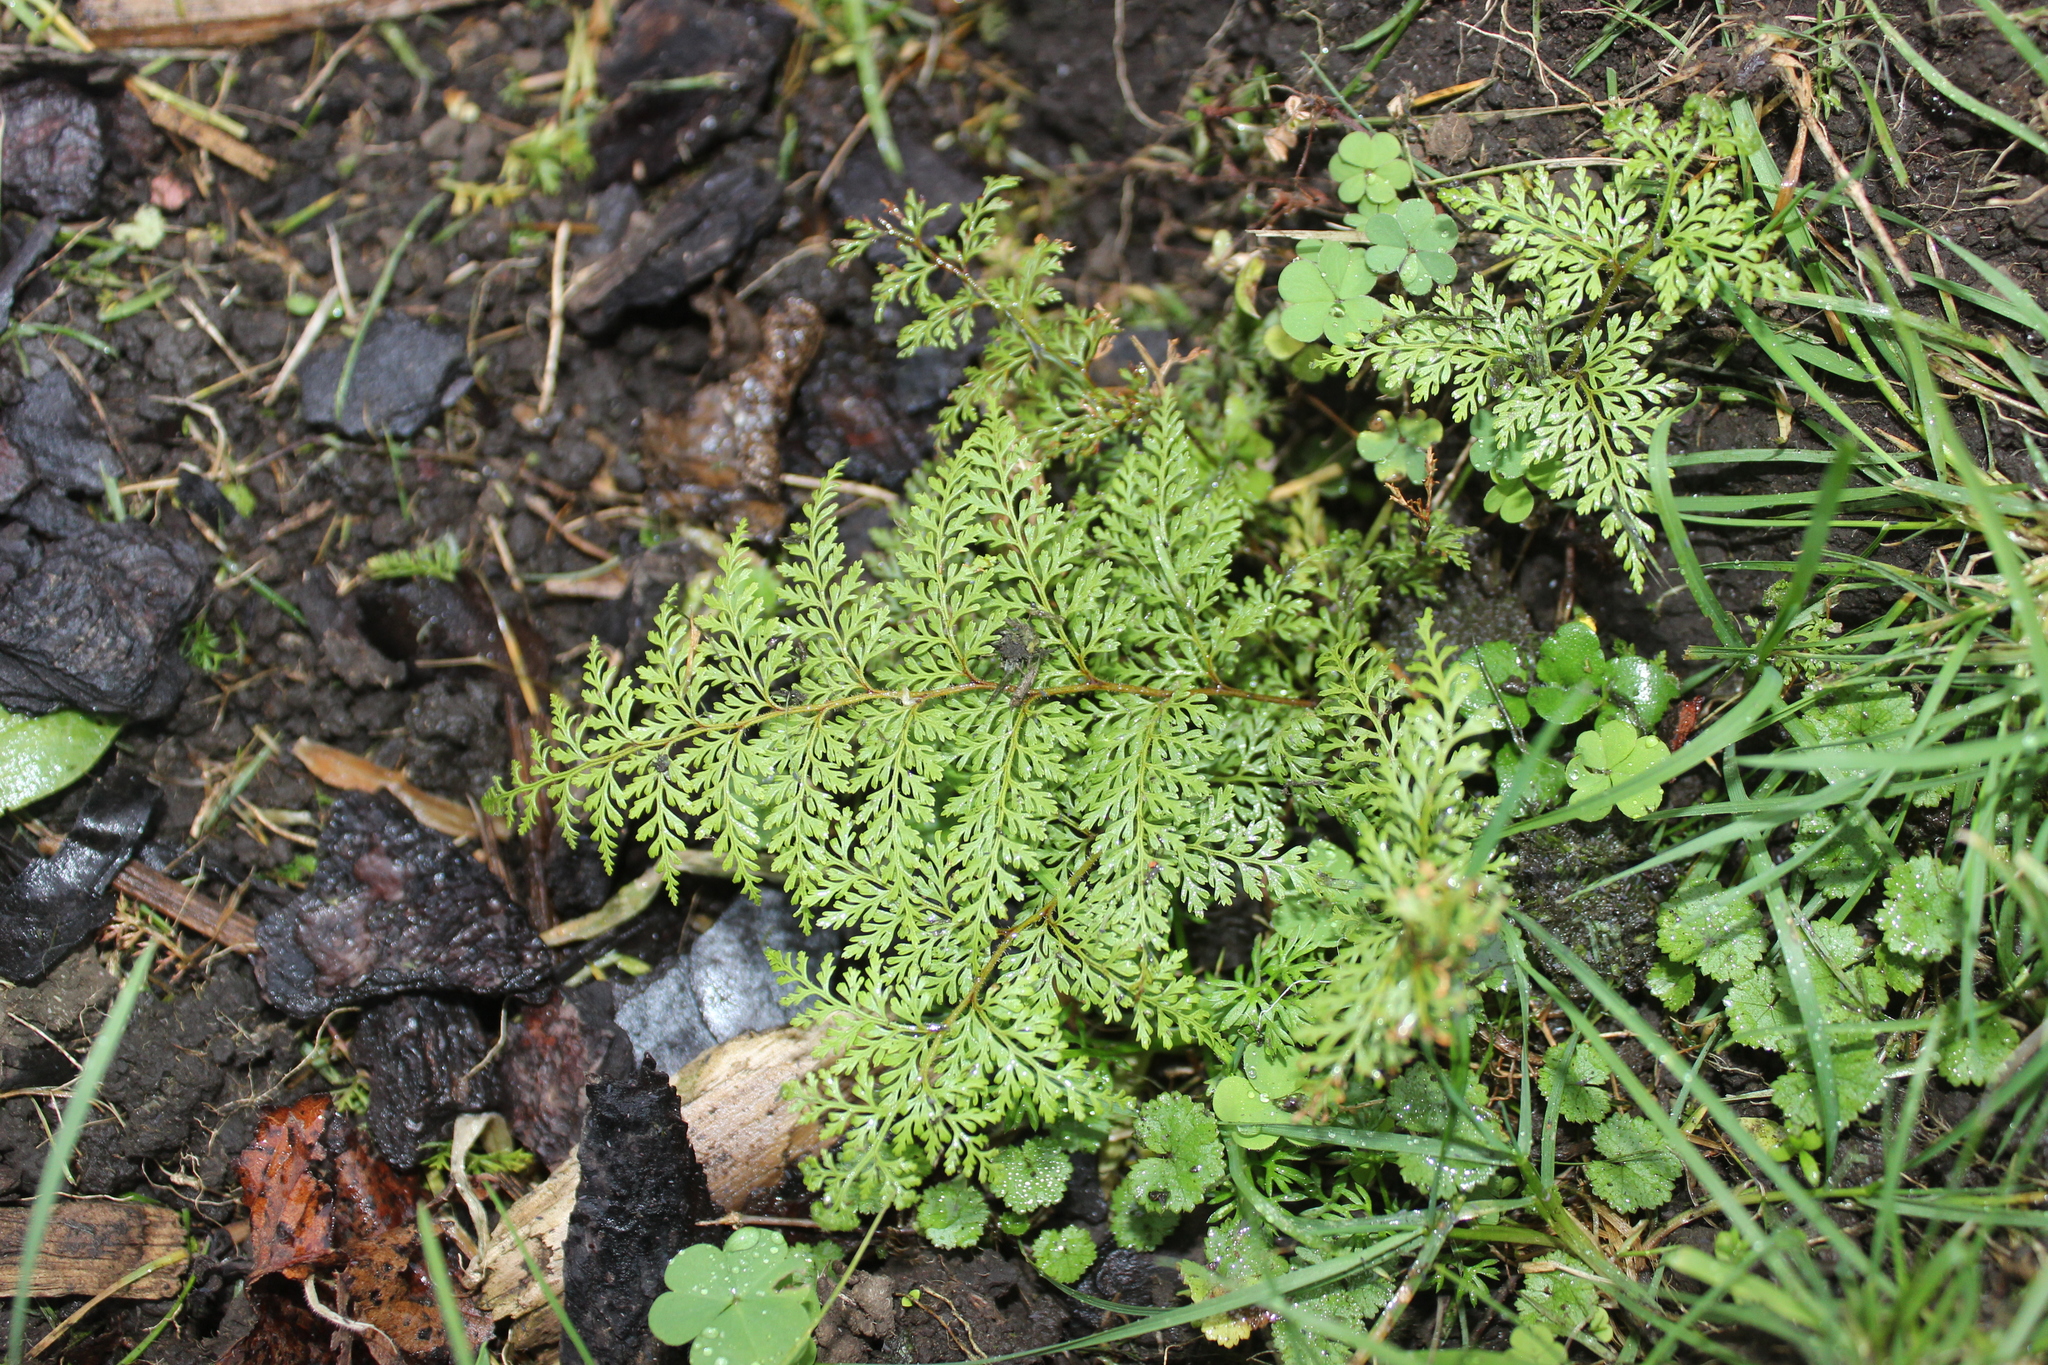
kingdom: Plantae
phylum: Tracheophyta
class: Polypodiopsida
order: Polypodiales
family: Dennstaedtiaceae
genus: Paesia
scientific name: Paesia scaberula
